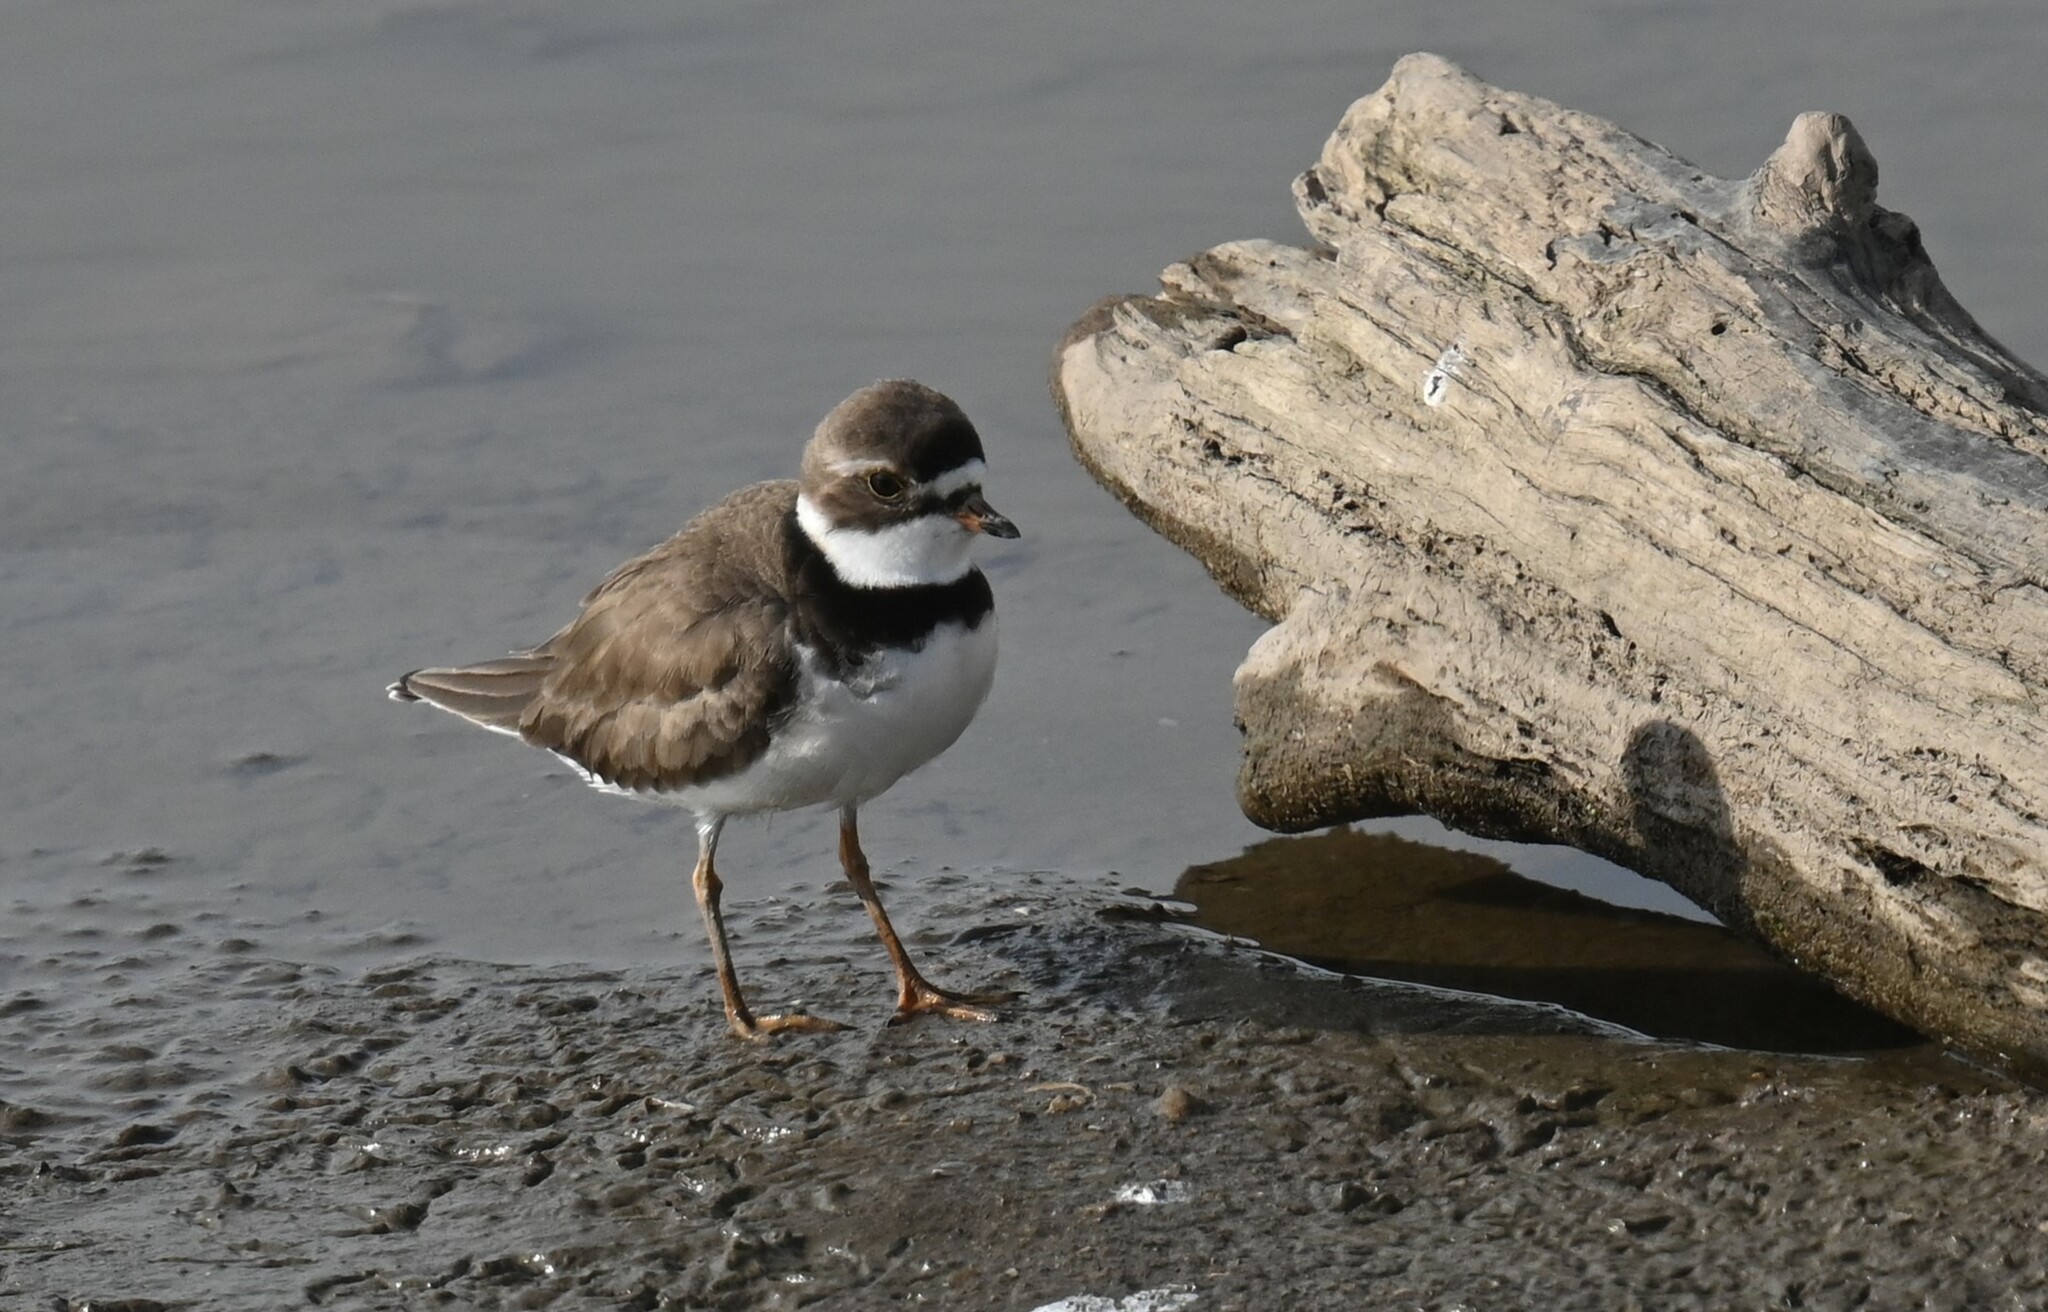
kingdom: Animalia
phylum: Chordata
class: Aves
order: Charadriiformes
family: Charadriidae
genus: Charadrius
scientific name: Charadrius semipalmatus
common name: Semipalmated plover
